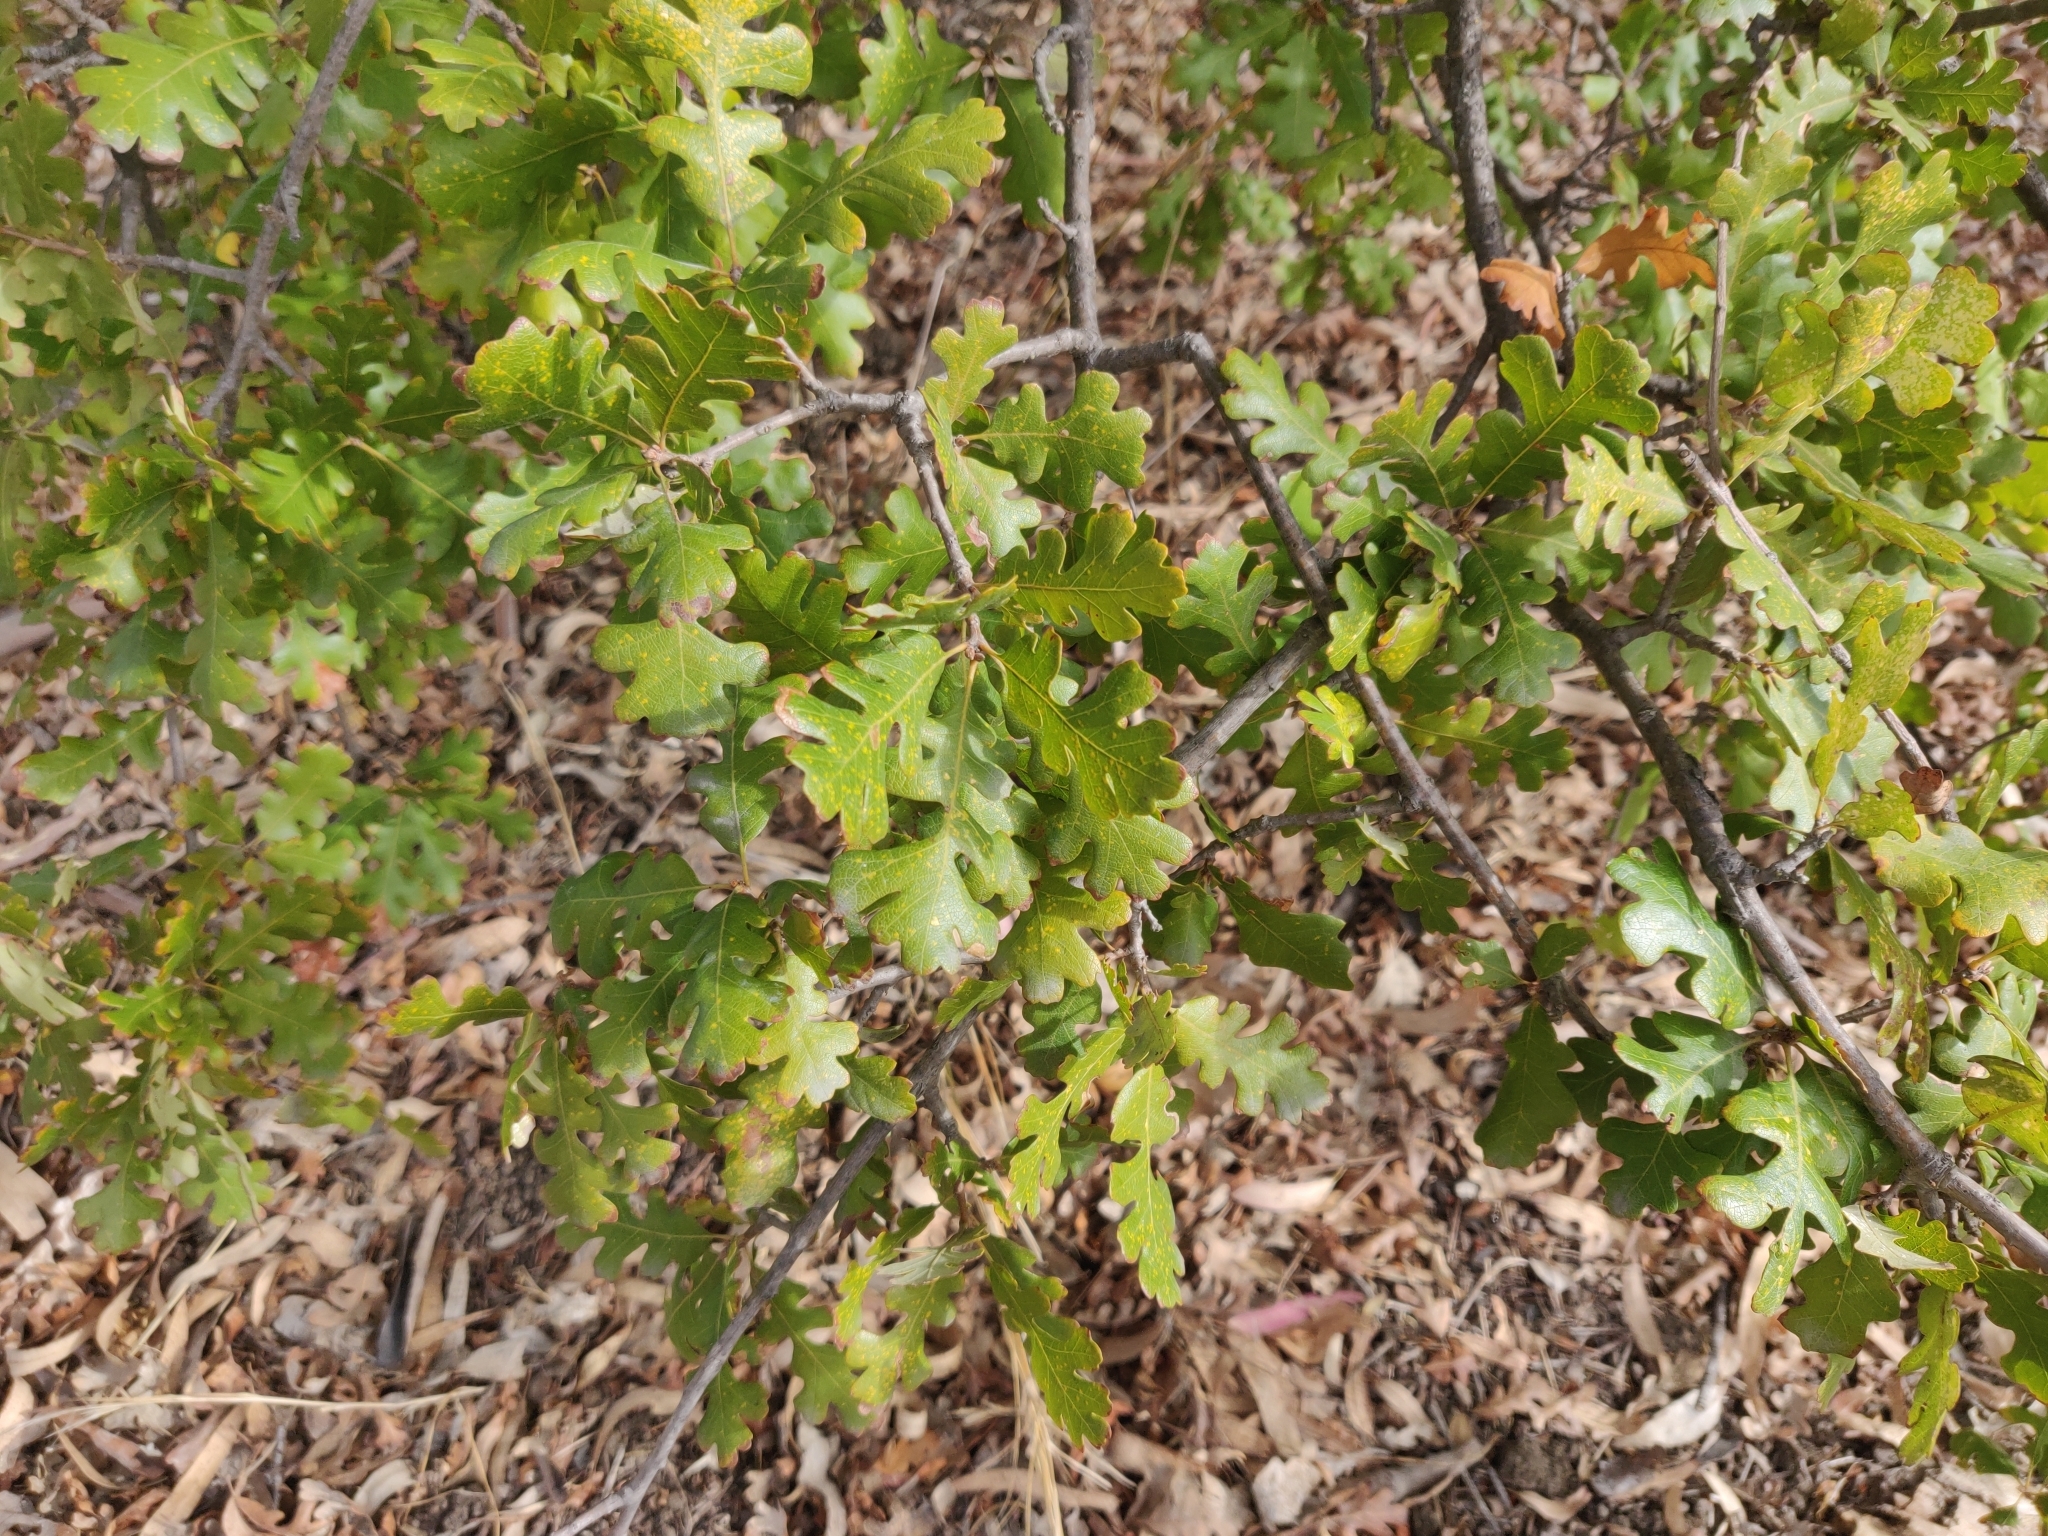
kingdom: Plantae
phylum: Tracheophyta
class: Magnoliopsida
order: Fagales
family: Fagaceae
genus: Quercus
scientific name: Quercus lobata
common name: Valley oak
